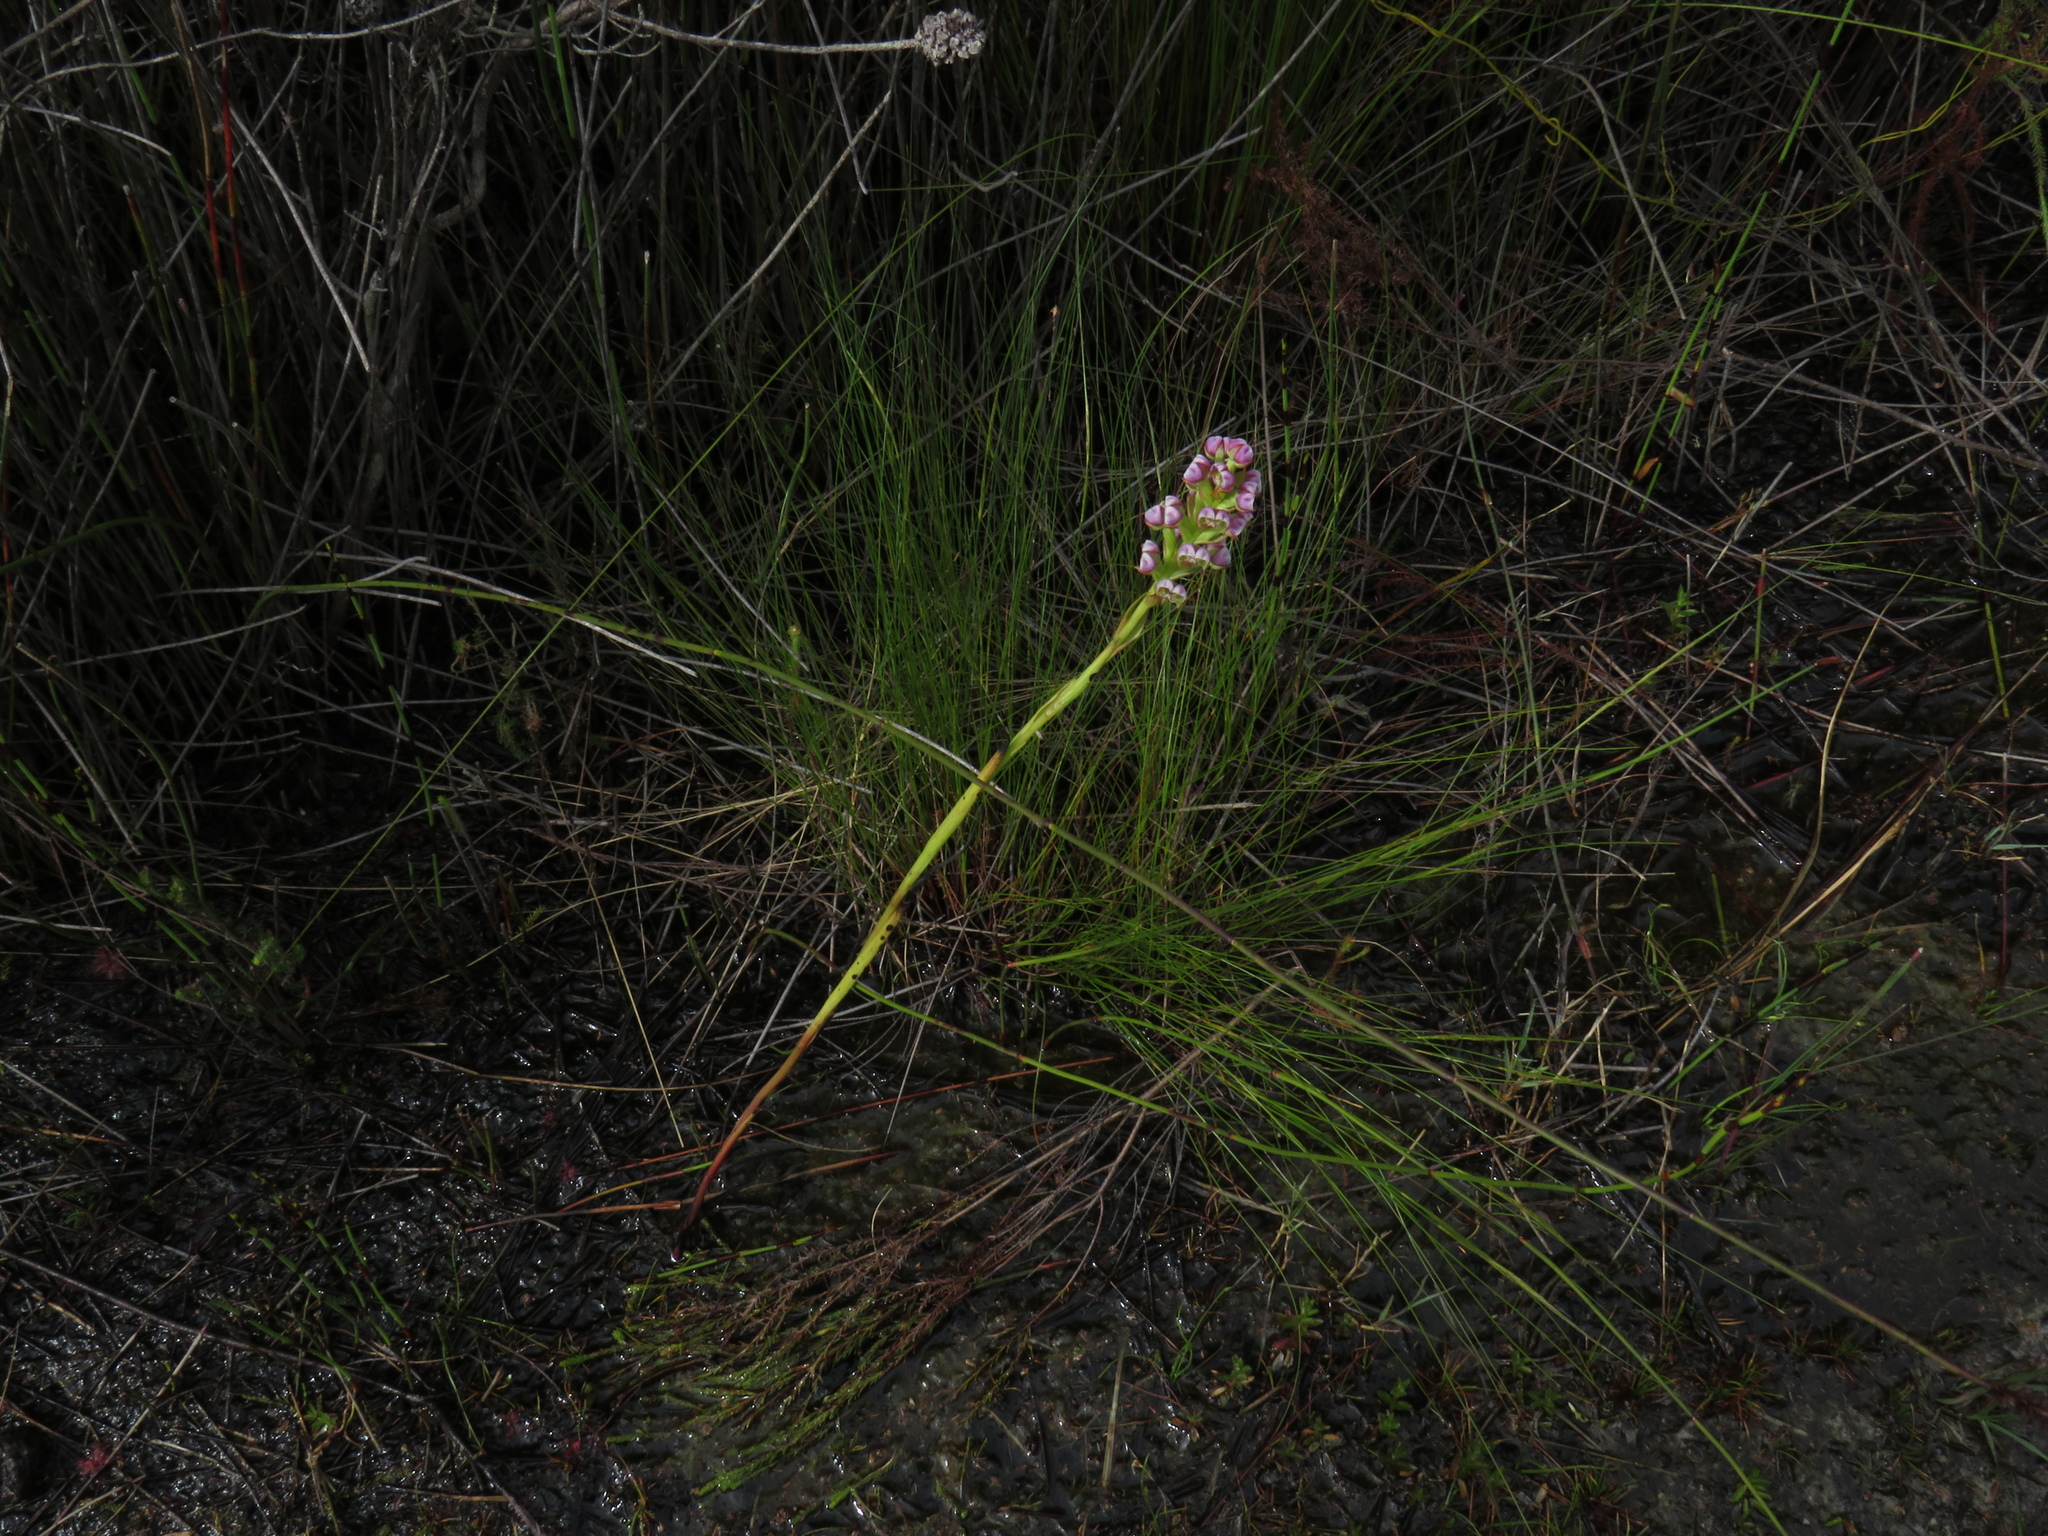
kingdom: Plantae
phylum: Tracheophyta
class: Liliopsida
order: Asparagales
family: Orchidaceae
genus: Evotella
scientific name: Evotella carnosa
